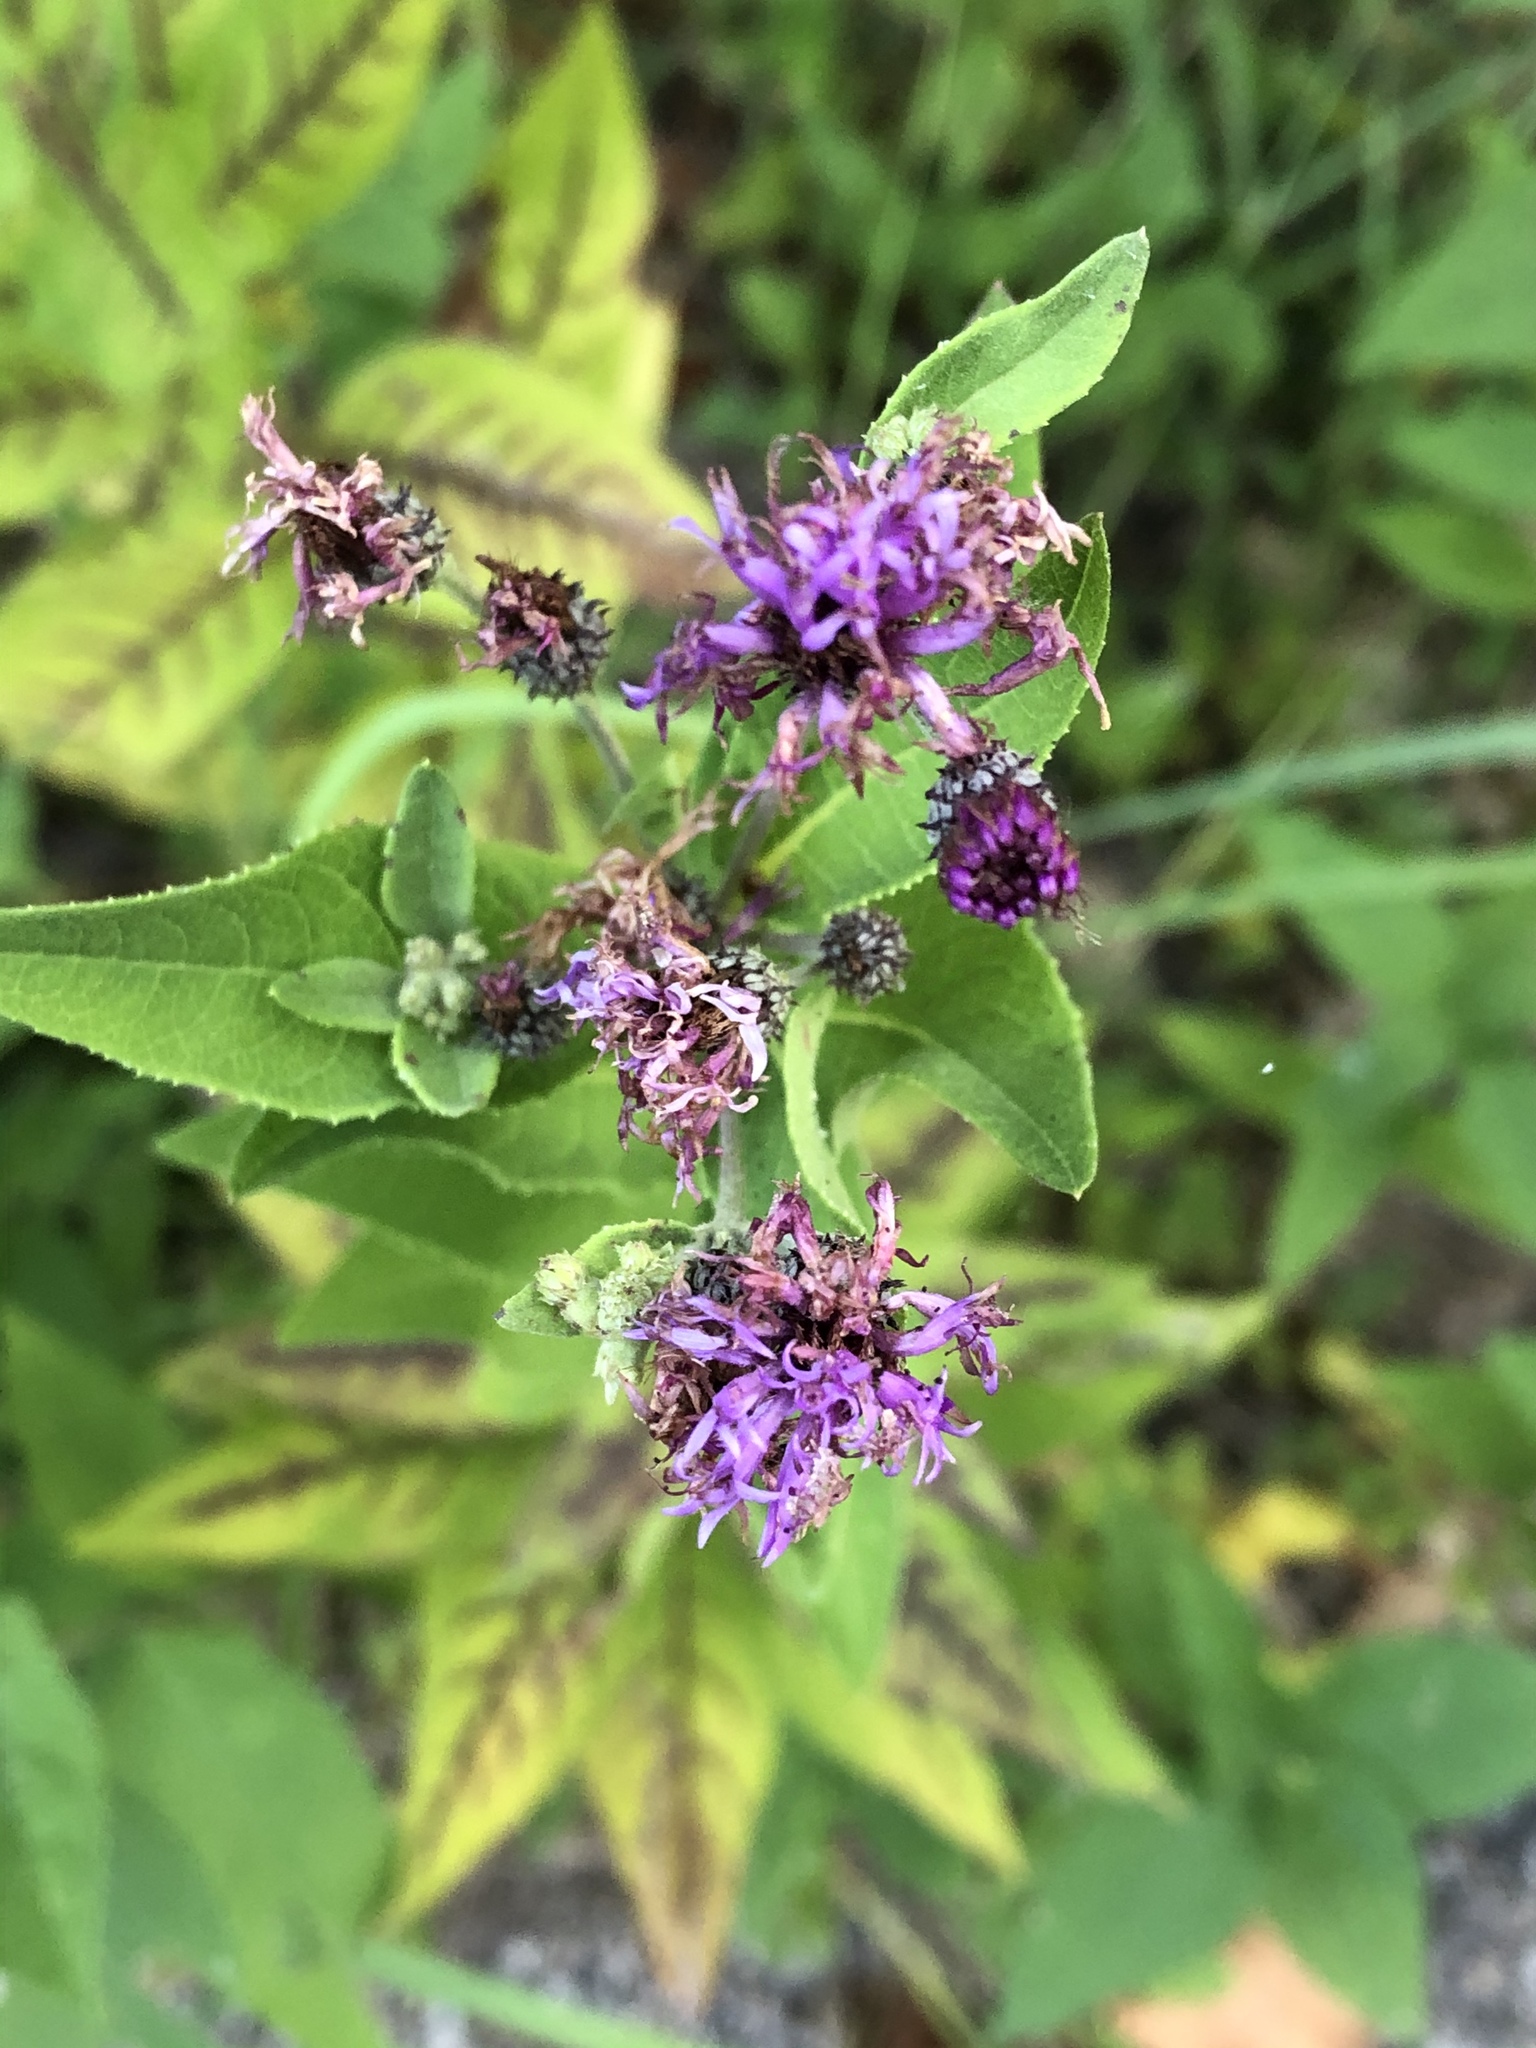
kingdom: Plantae
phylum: Tracheophyta
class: Magnoliopsida
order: Asterales
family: Asteraceae
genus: Vernonia
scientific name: Vernonia baldwinii
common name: Western ironweed
